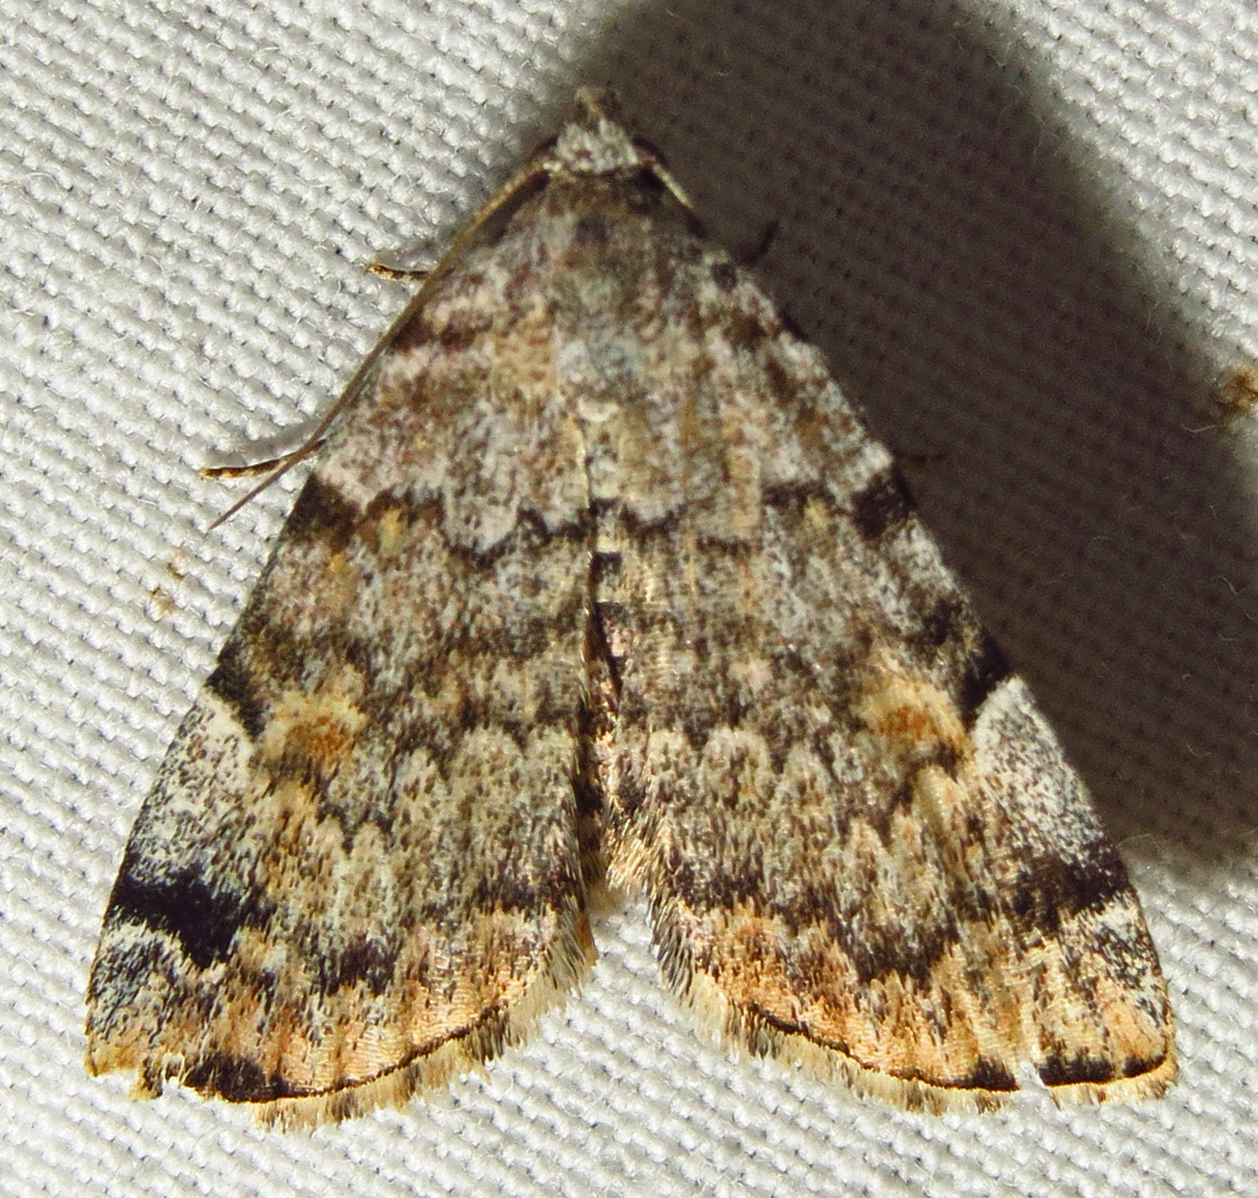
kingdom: Animalia
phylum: Arthropoda
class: Insecta
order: Lepidoptera
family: Erebidae
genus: Idia
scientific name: Idia americalis
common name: American idia moth
